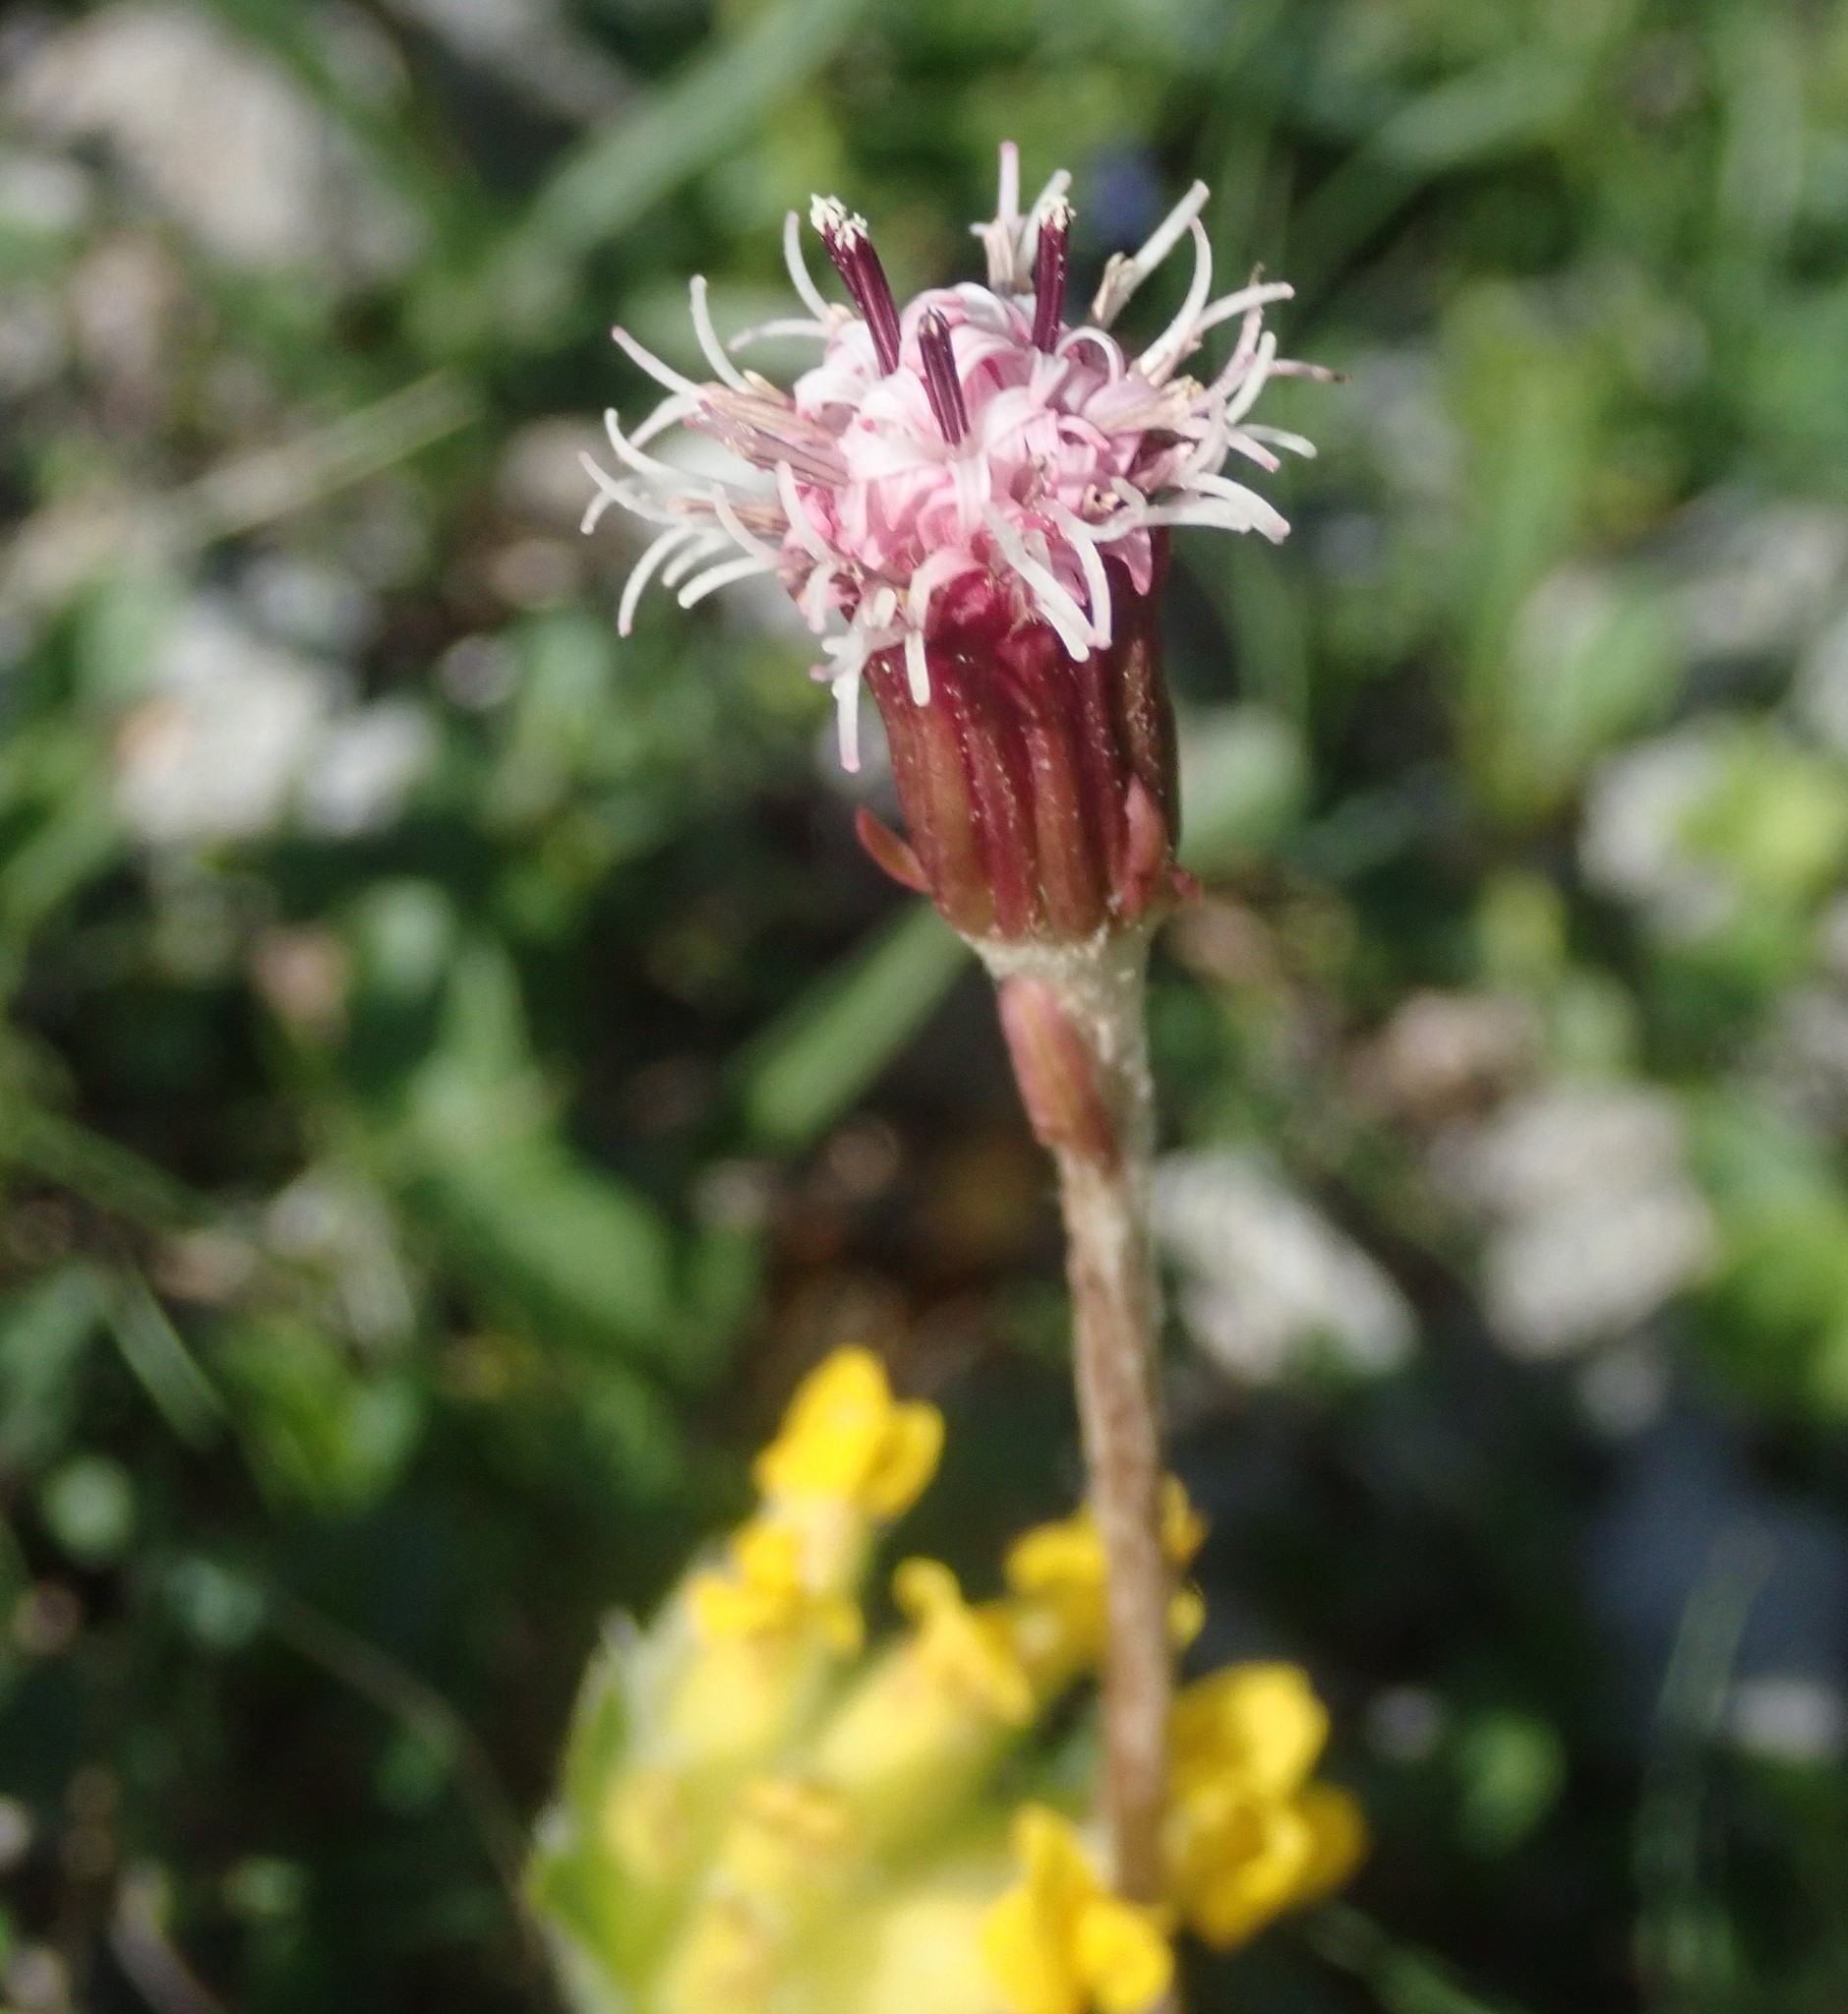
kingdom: Plantae
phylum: Tracheophyta
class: Magnoliopsida
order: Asterales
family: Asteraceae
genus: Homogyne
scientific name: Homogyne alpina
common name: Purple colt's-foot
